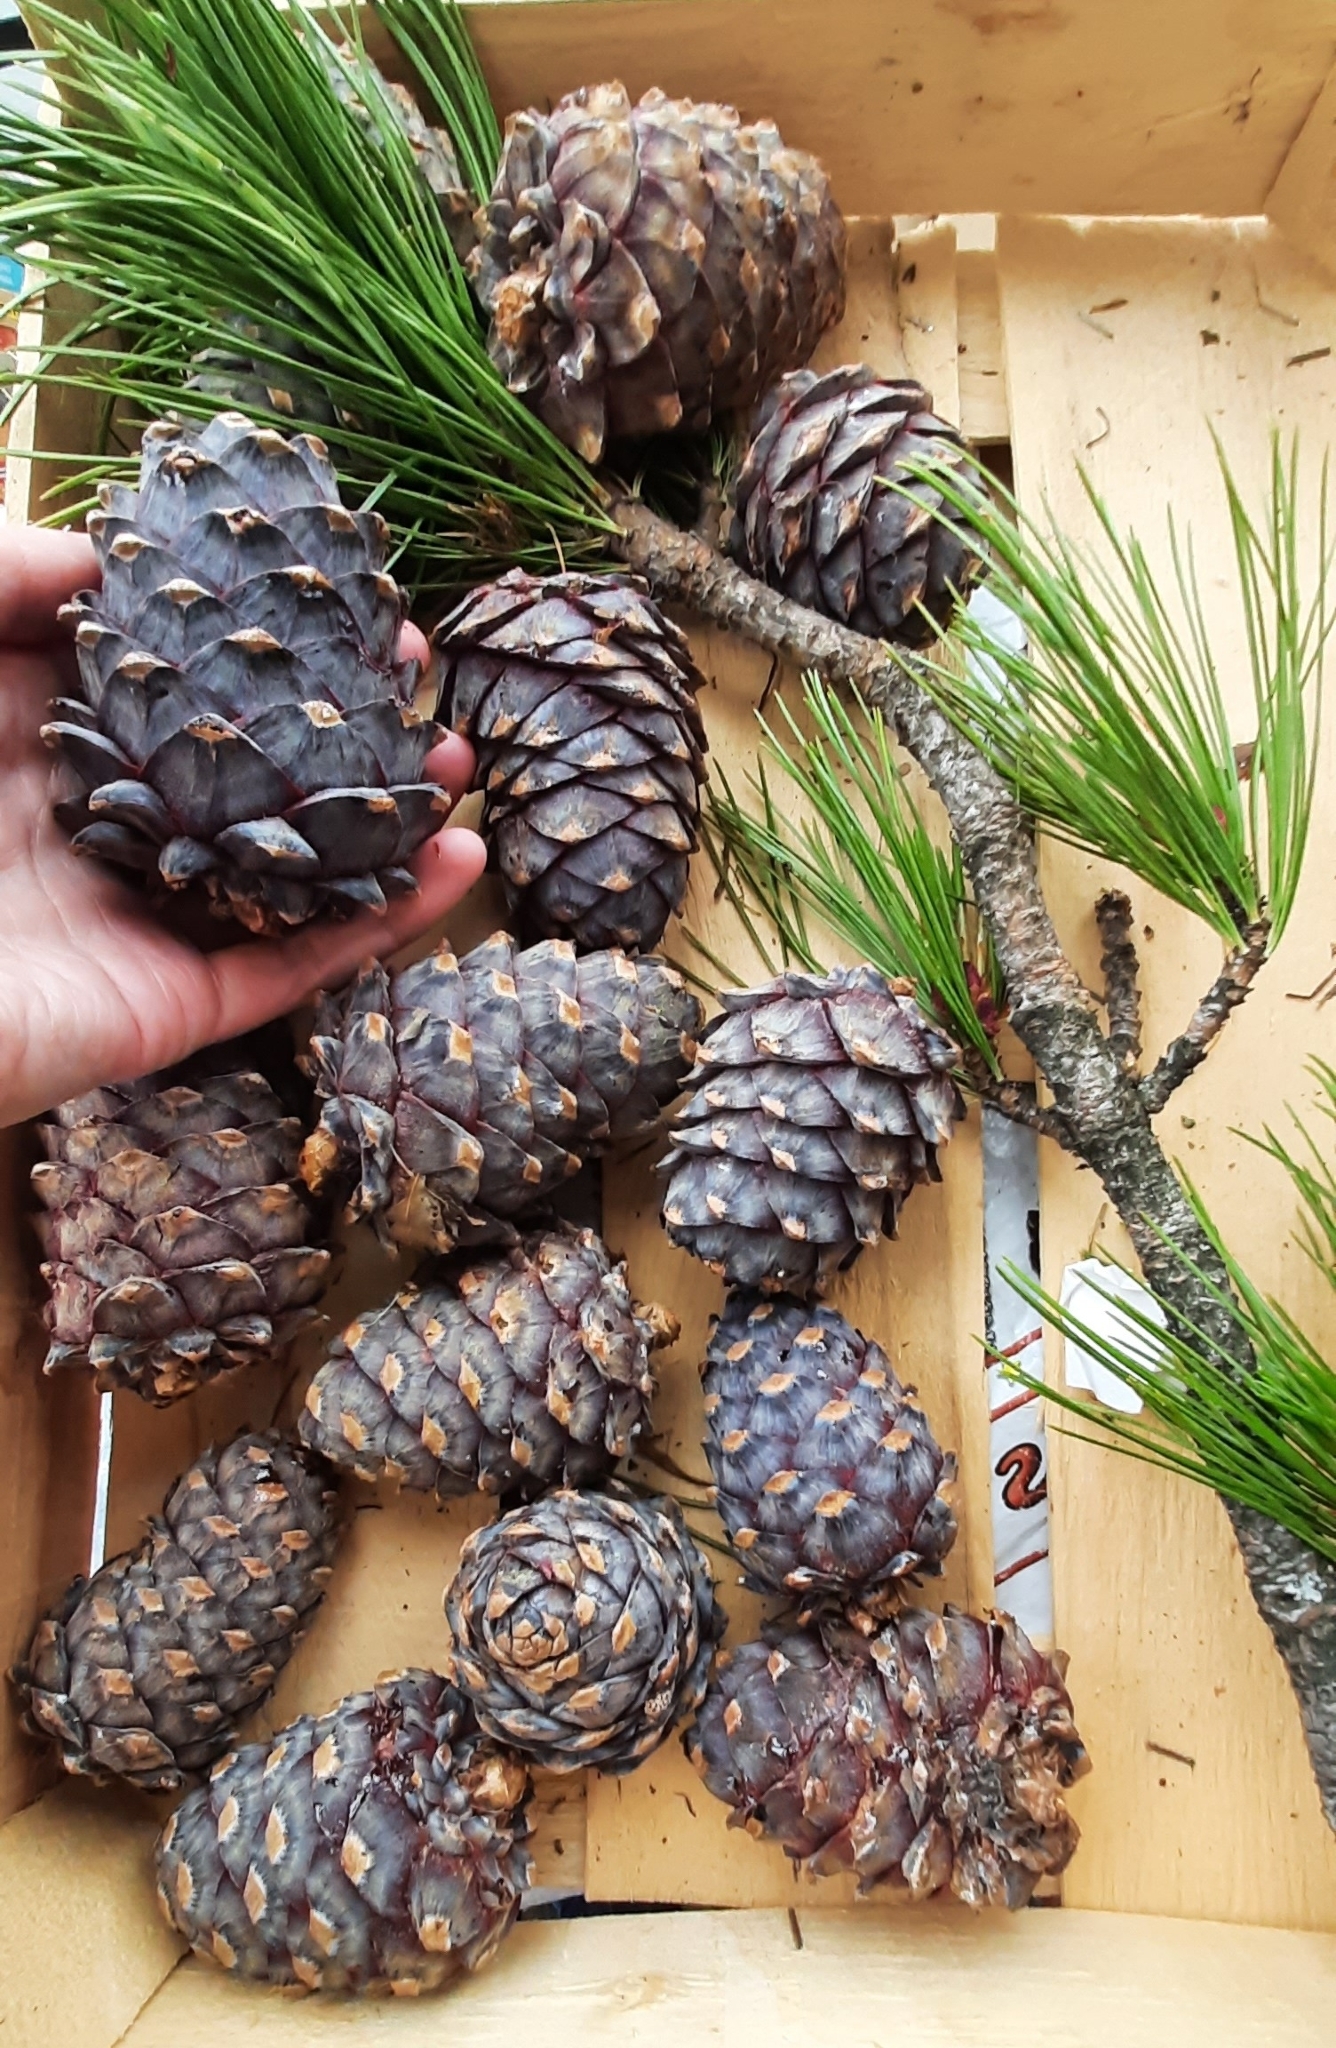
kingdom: Plantae
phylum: Tracheophyta
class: Pinopsida
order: Pinales
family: Pinaceae
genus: Pinus
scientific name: Pinus sibirica
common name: Siberian pine
